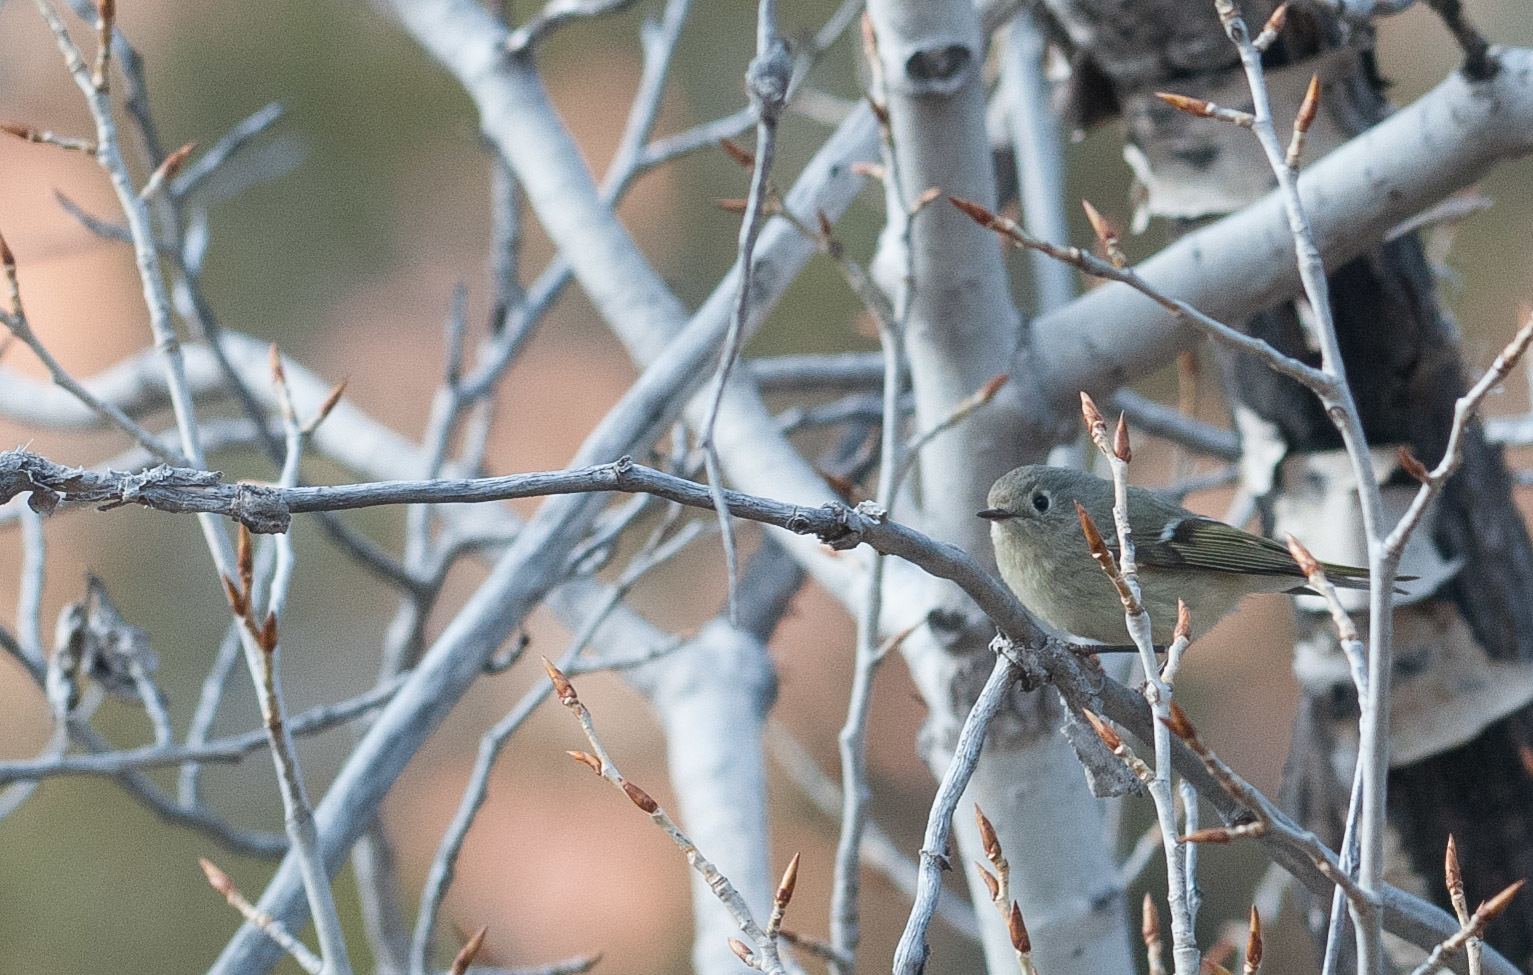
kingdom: Animalia
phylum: Chordata
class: Aves
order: Passeriformes
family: Regulidae
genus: Regulus
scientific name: Regulus calendula
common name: Ruby-crowned kinglet
